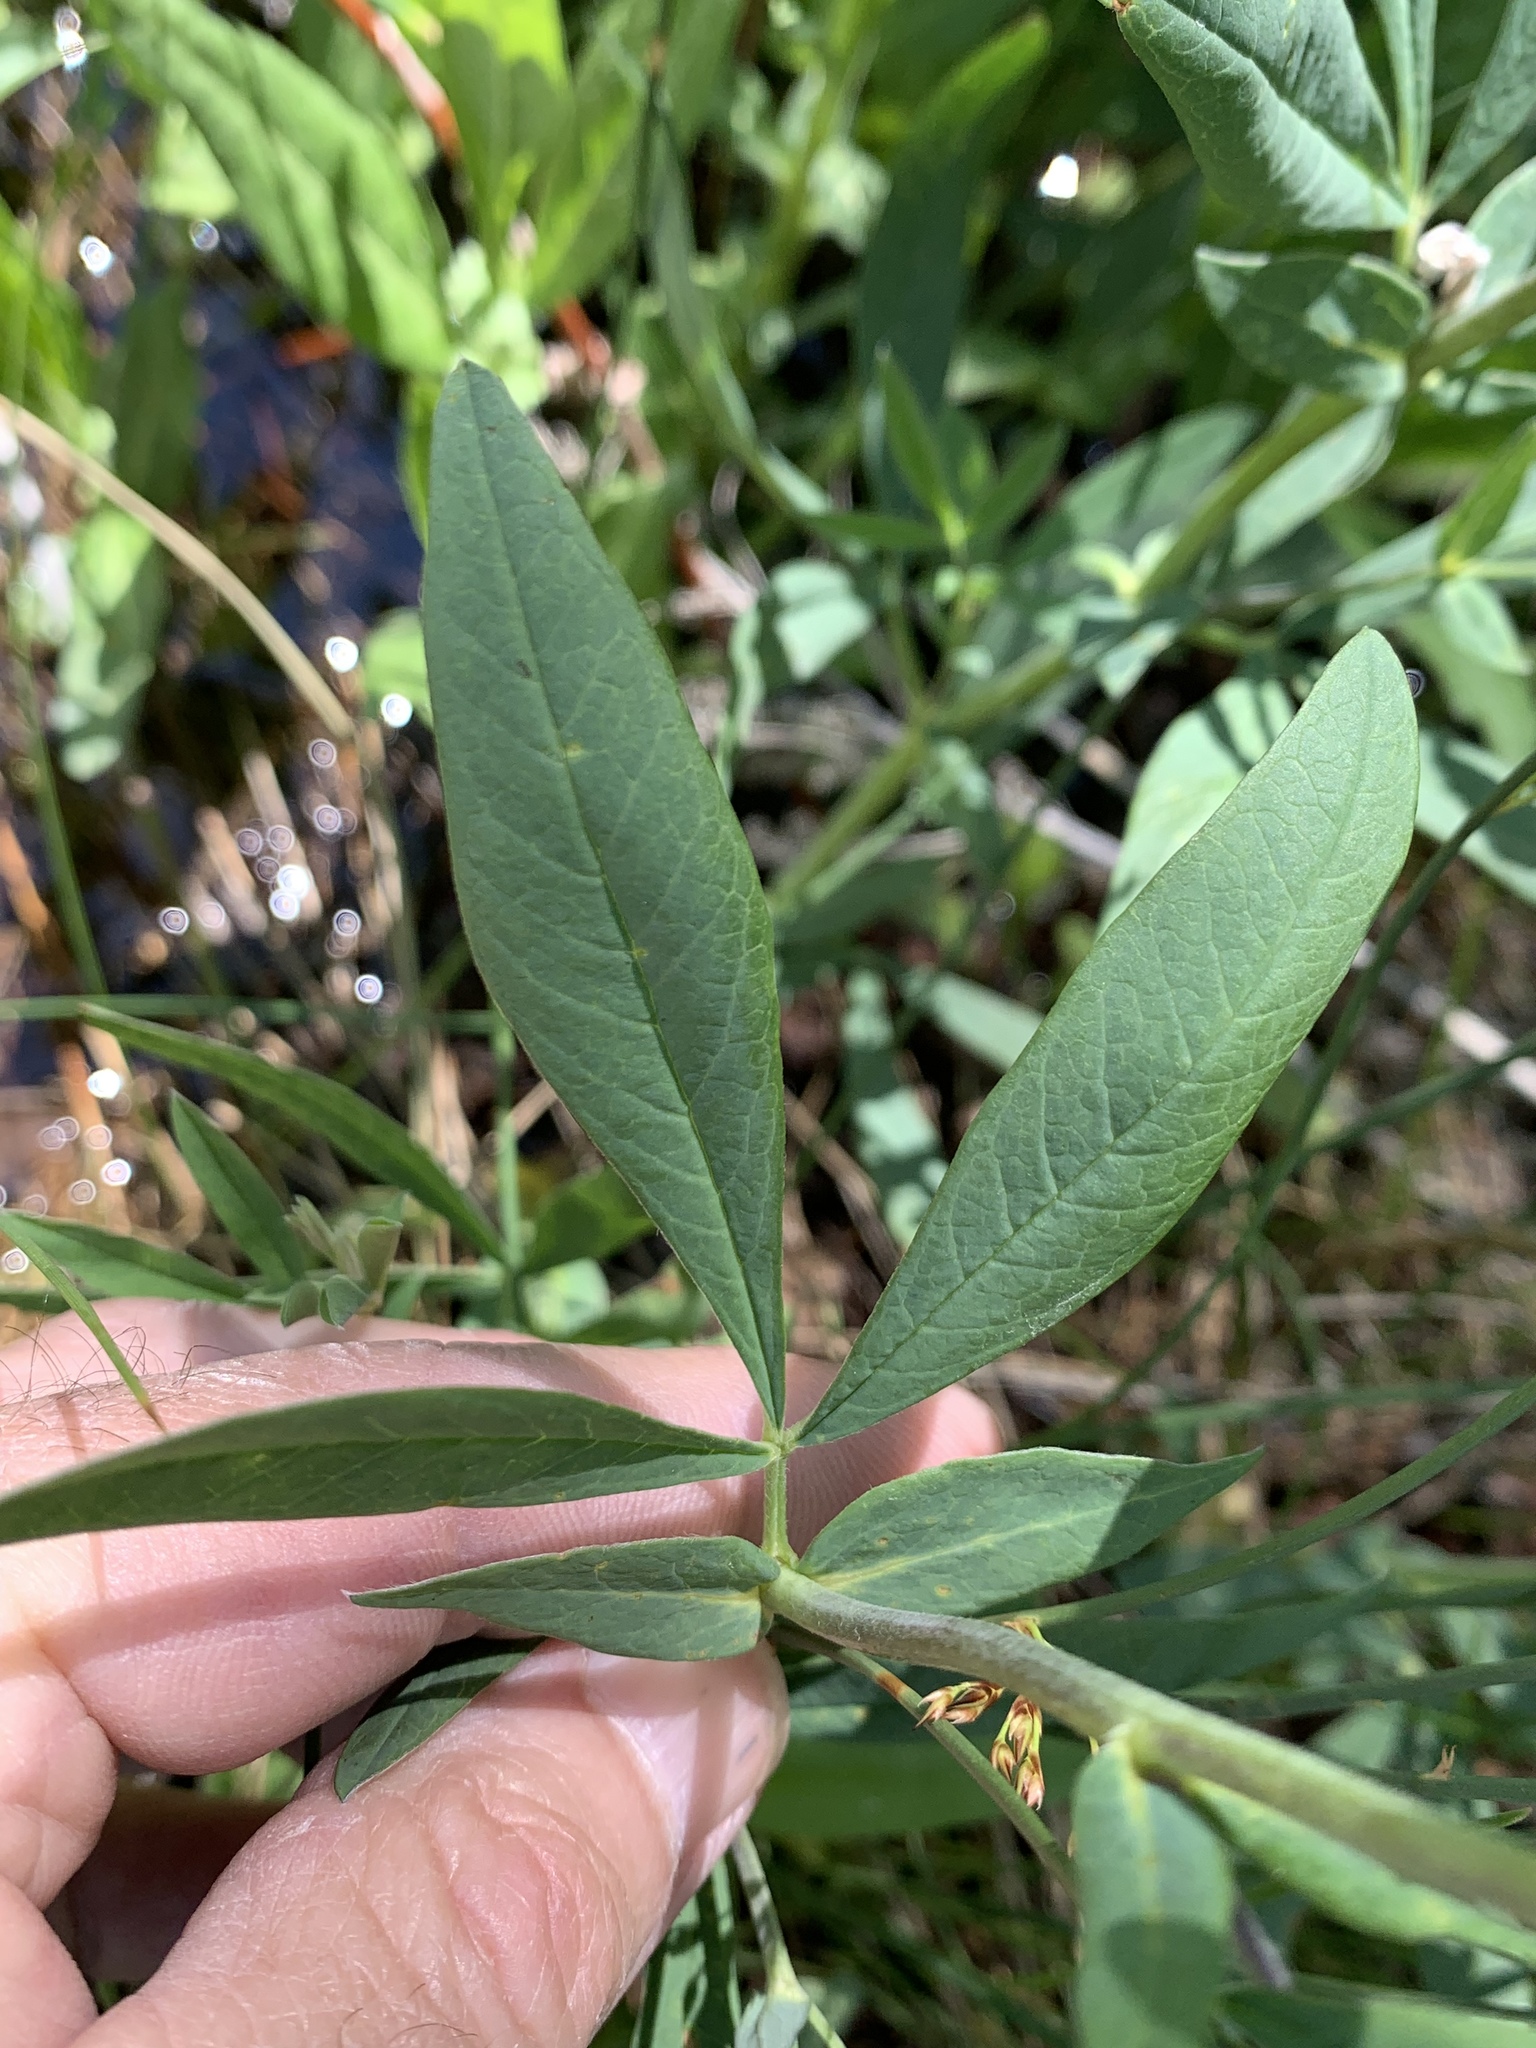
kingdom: Plantae
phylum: Tracheophyta
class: Magnoliopsida
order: Fabales
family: Fabaceae
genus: Thermopsis
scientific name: Thermopsis montana
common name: False lupin
